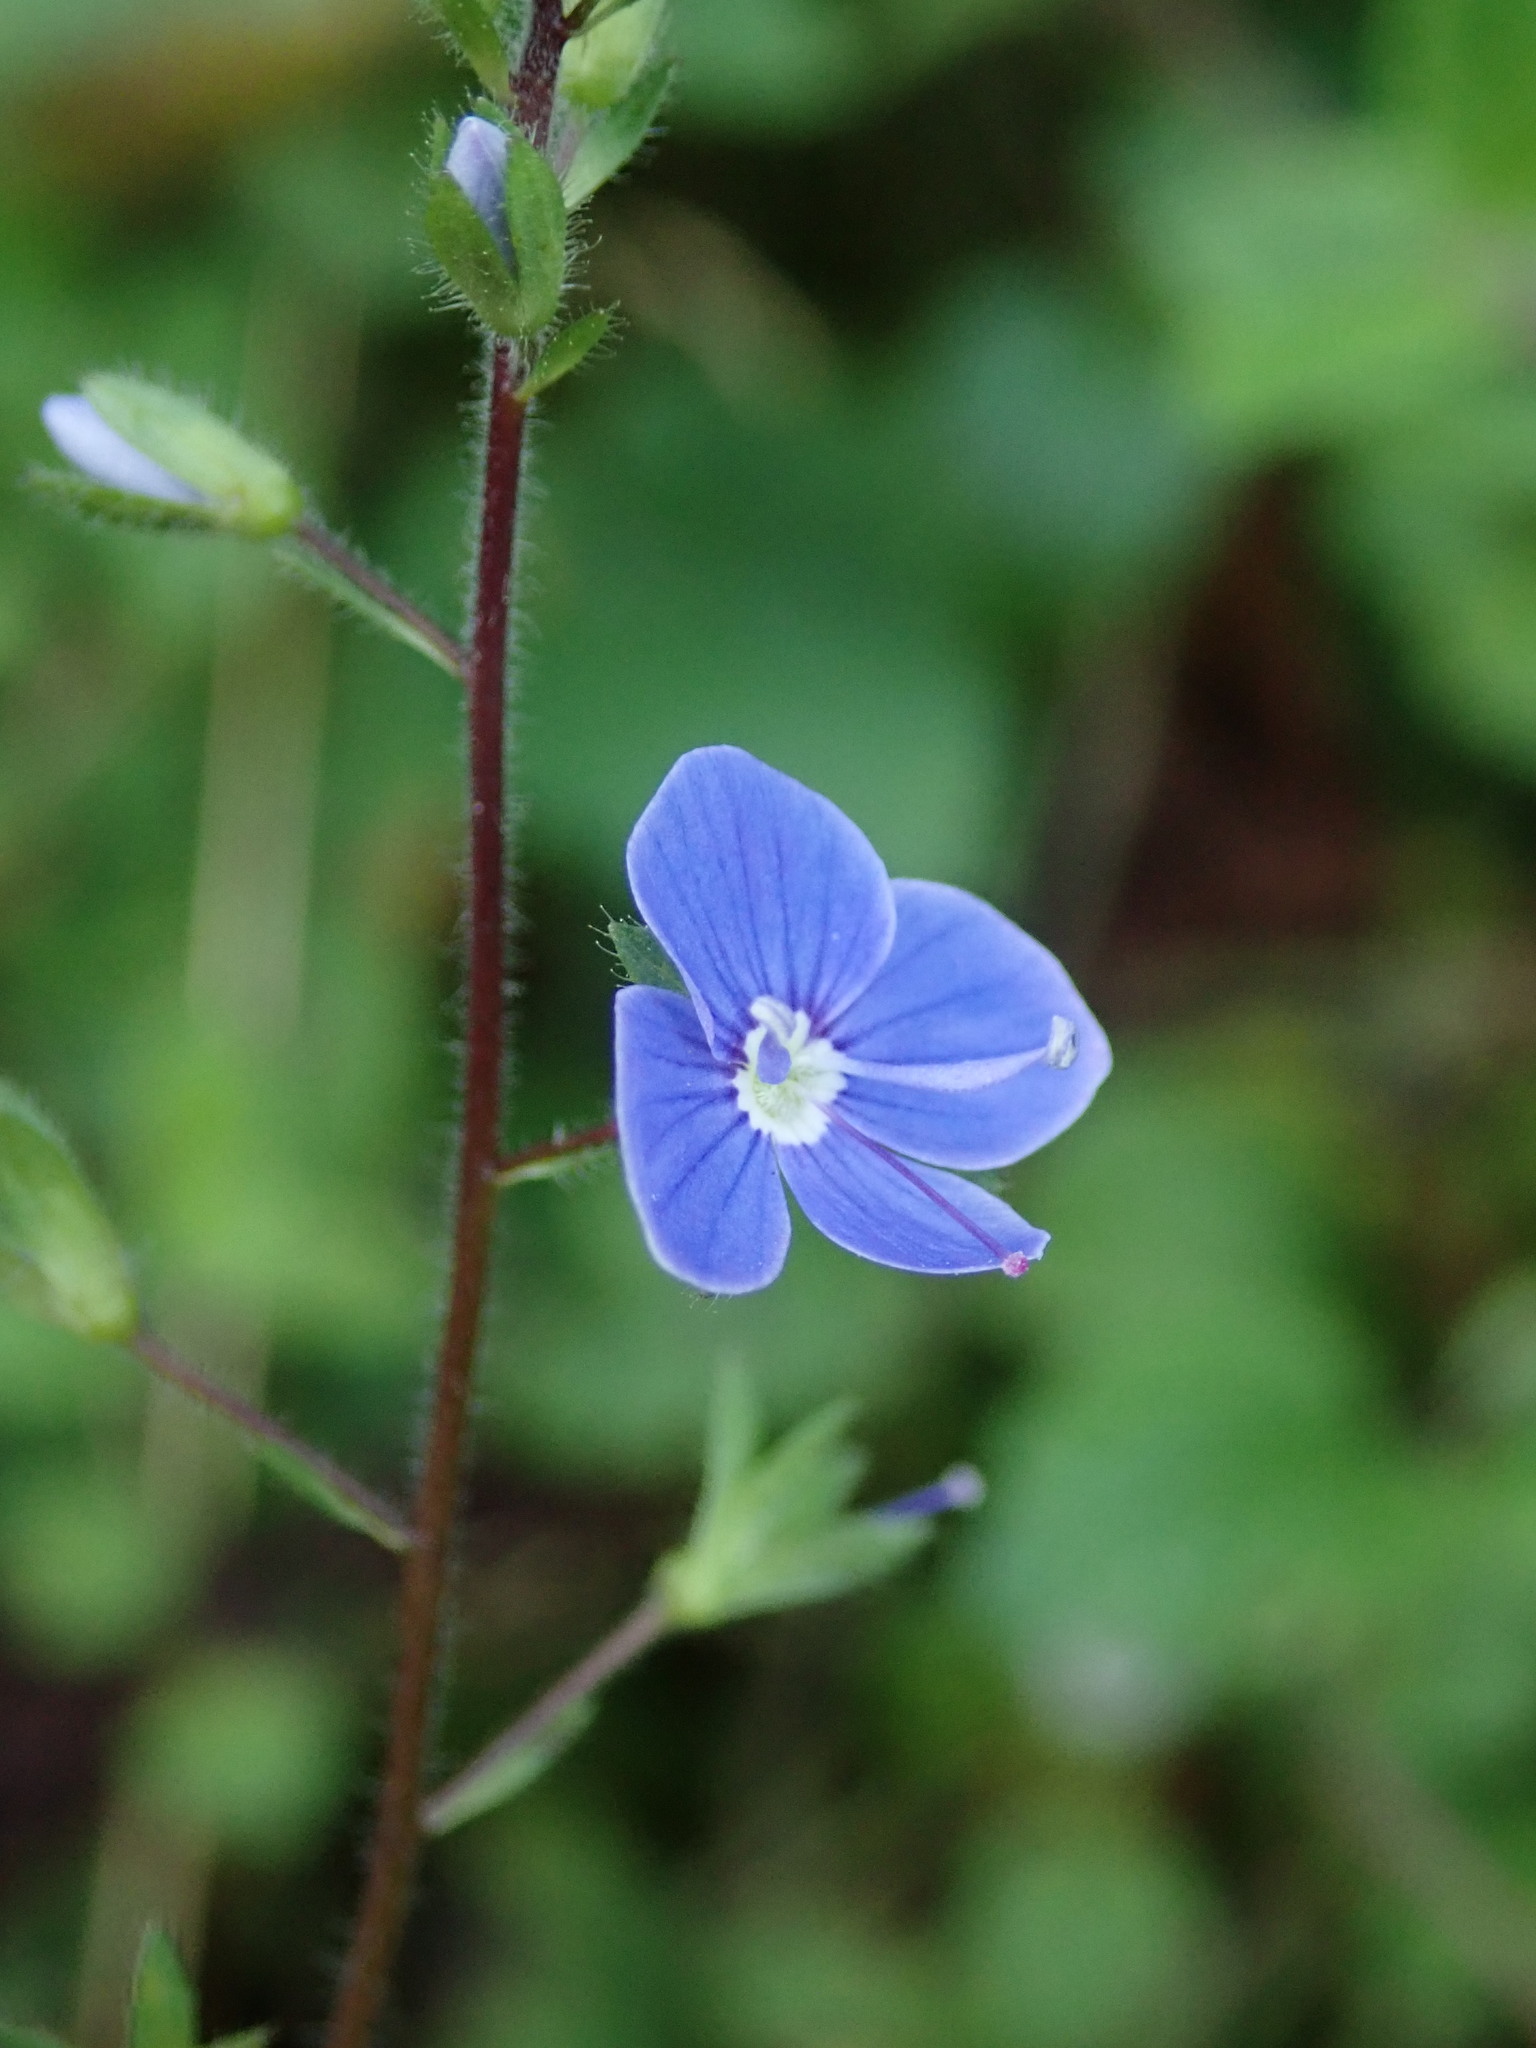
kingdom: Plantae
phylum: Tracheophyta
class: Magnoliopsida
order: Lamiales
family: Plantaginaceae
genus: Veronica
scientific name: Veronica chamaedrys
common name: Germander speedwell
